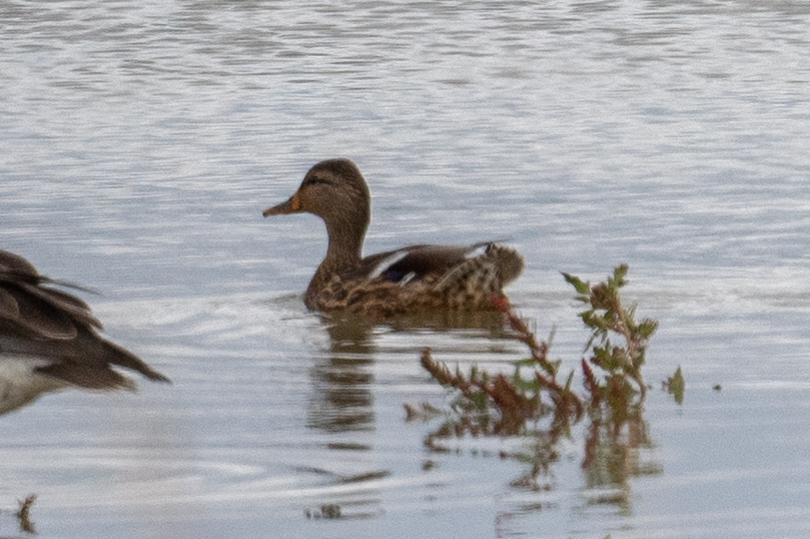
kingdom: Animalia
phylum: Chordata
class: Aves
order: Anseriformes
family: Anatidae
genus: Anas
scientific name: Anas platyrhynchos
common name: Mallard
